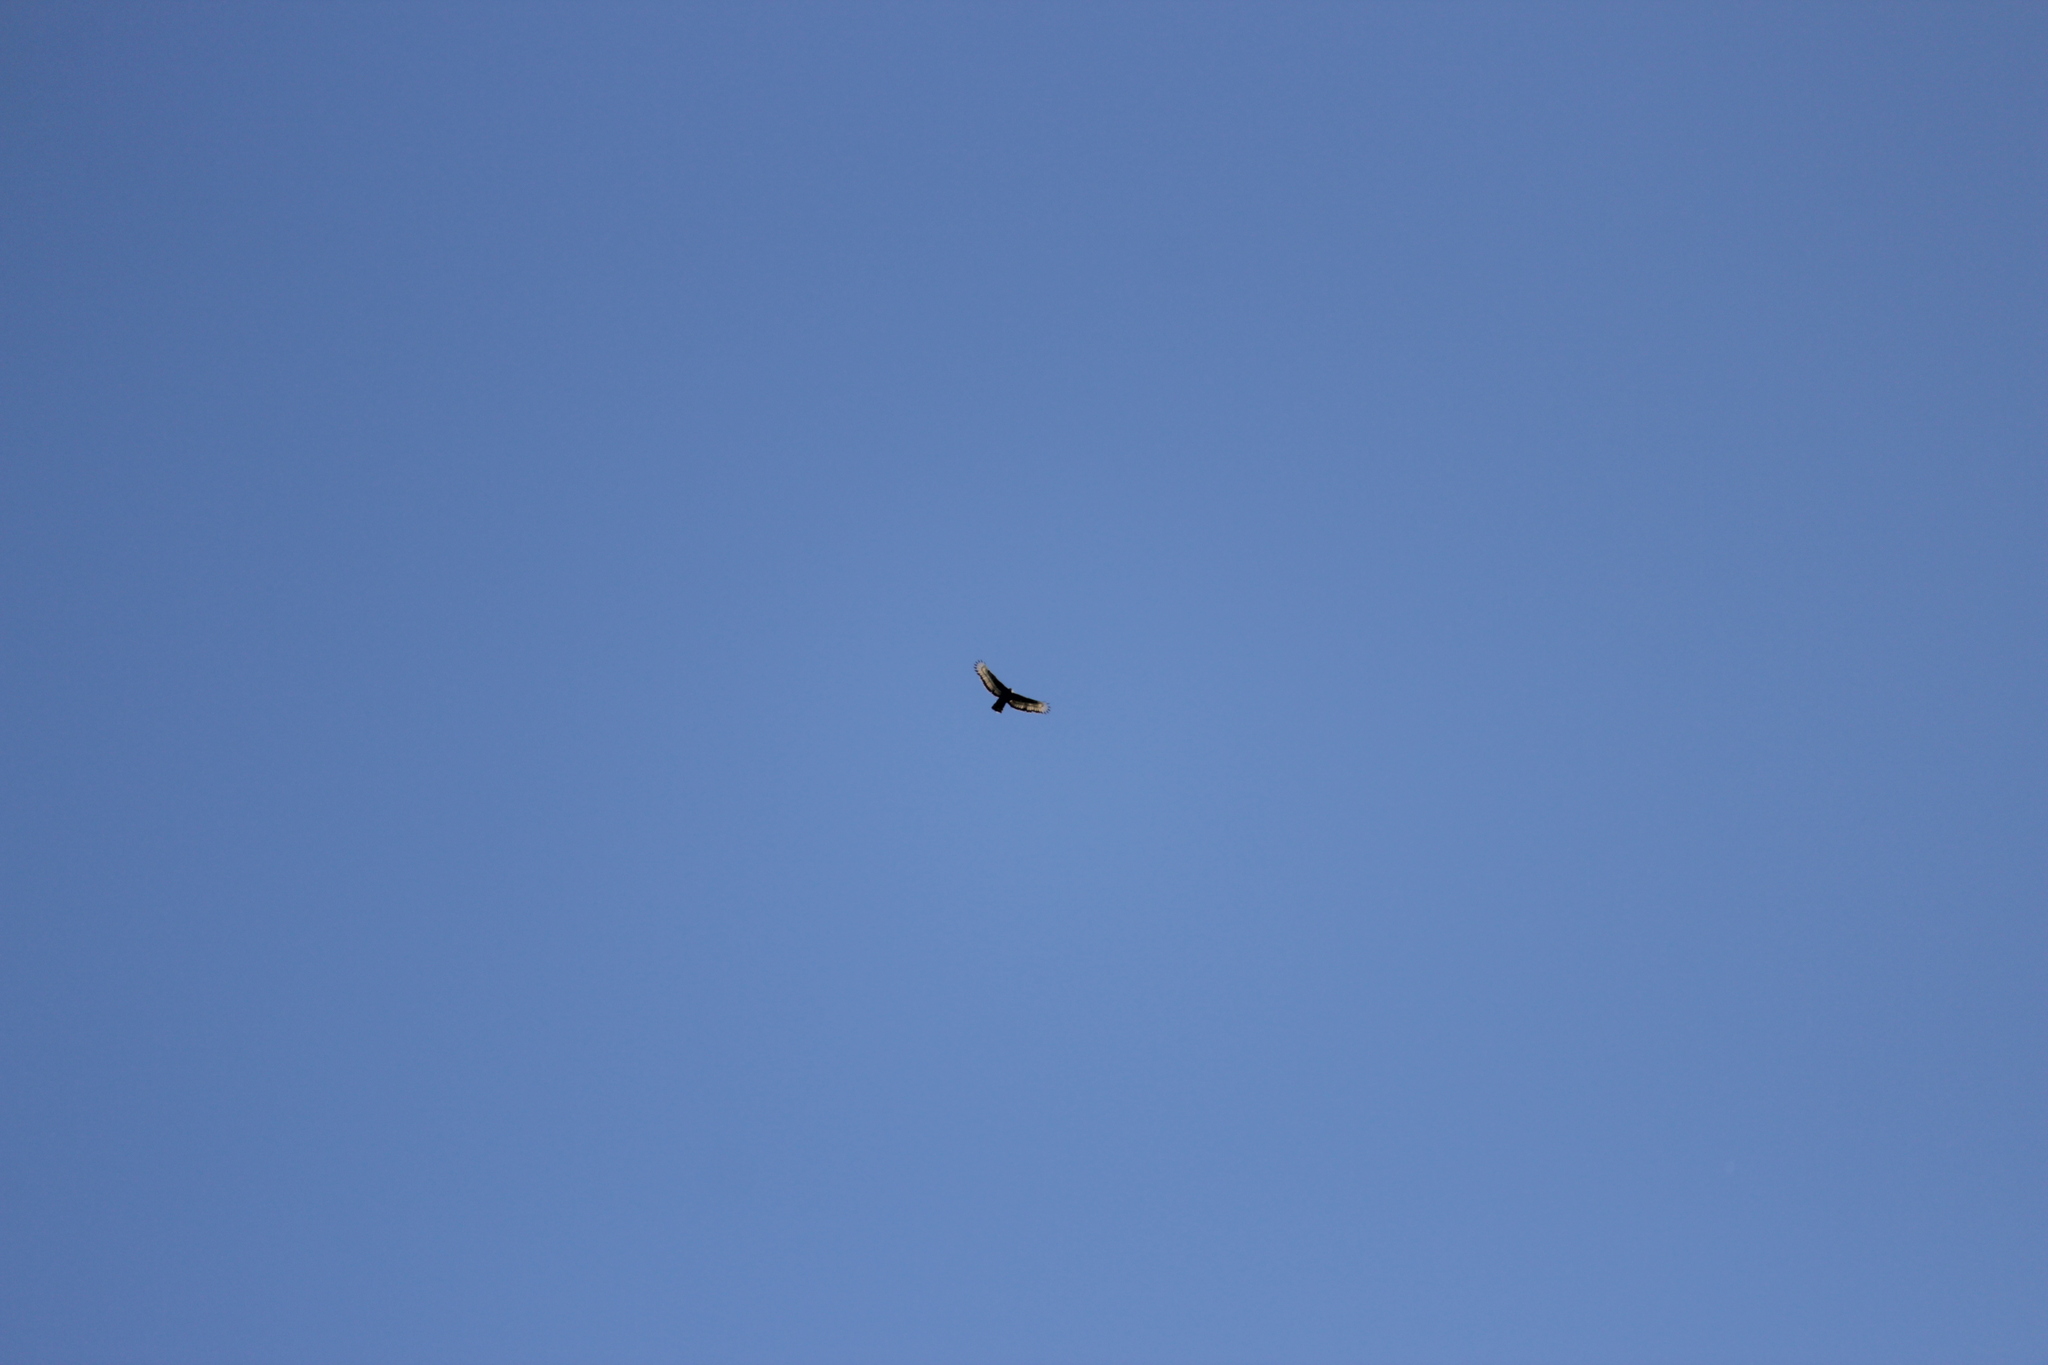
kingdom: Animalia
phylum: Chordata
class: Aves
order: Accipitriformes
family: Accipitridae
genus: Stephanoaetus
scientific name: Stephanoaetus coronatus
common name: Crowned eagle
